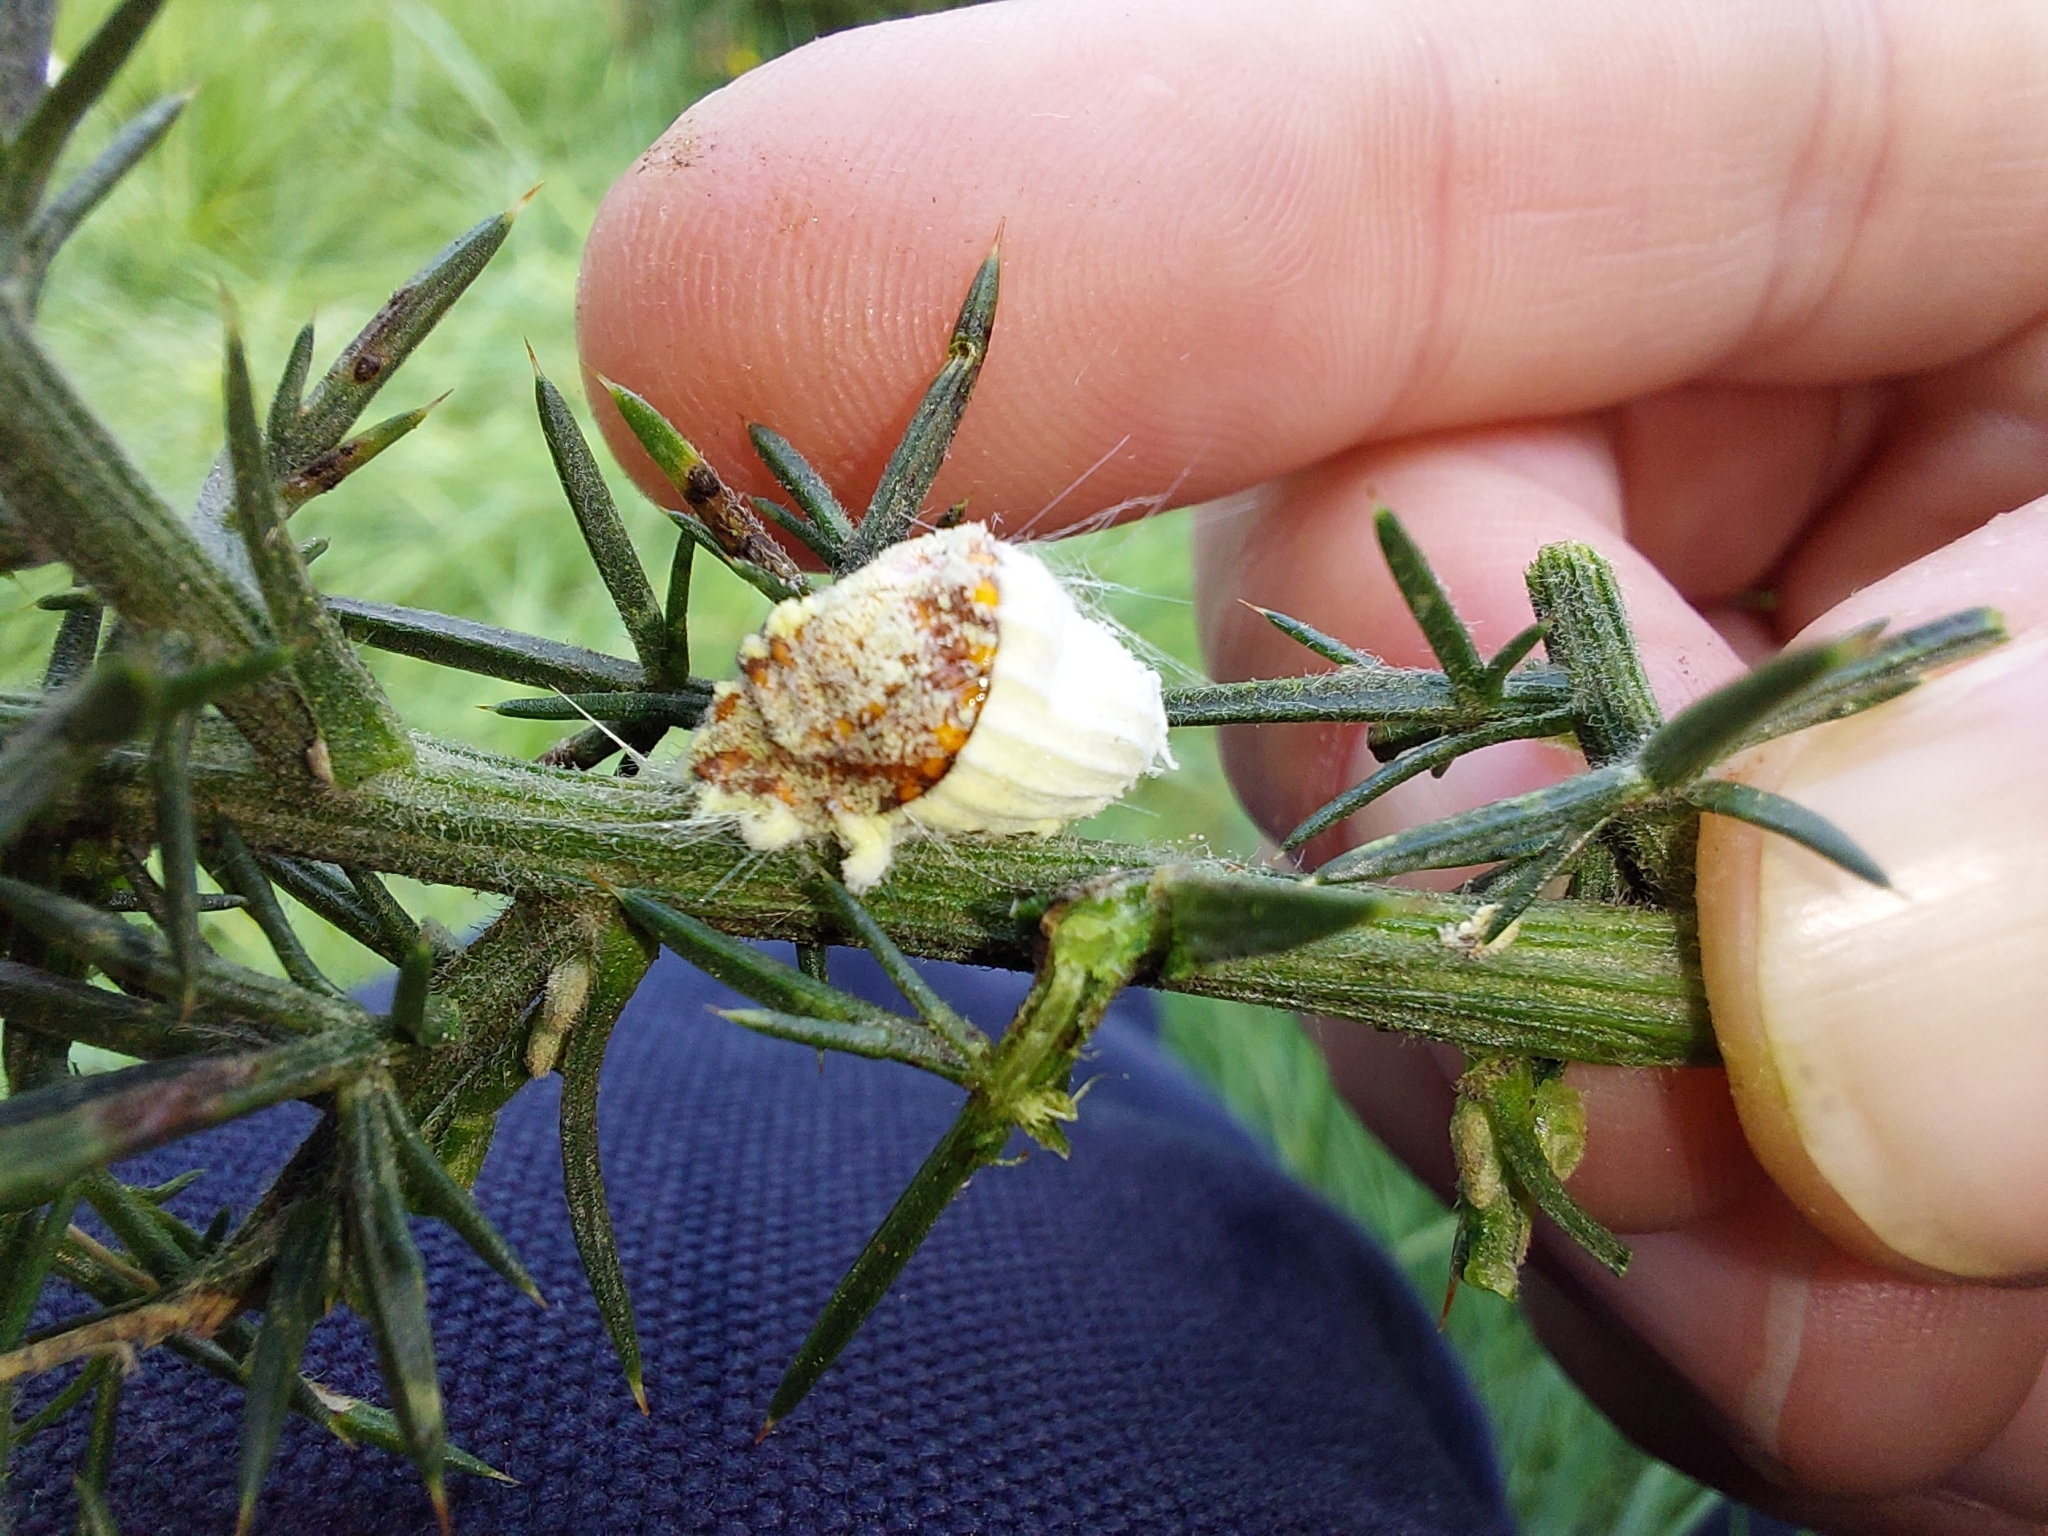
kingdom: Animalia
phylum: Arthropoda
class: Insecta
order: Hemiptera
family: Margarodidae
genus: Icerya
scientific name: Icerya purchasi
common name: Cottony cushion scale
